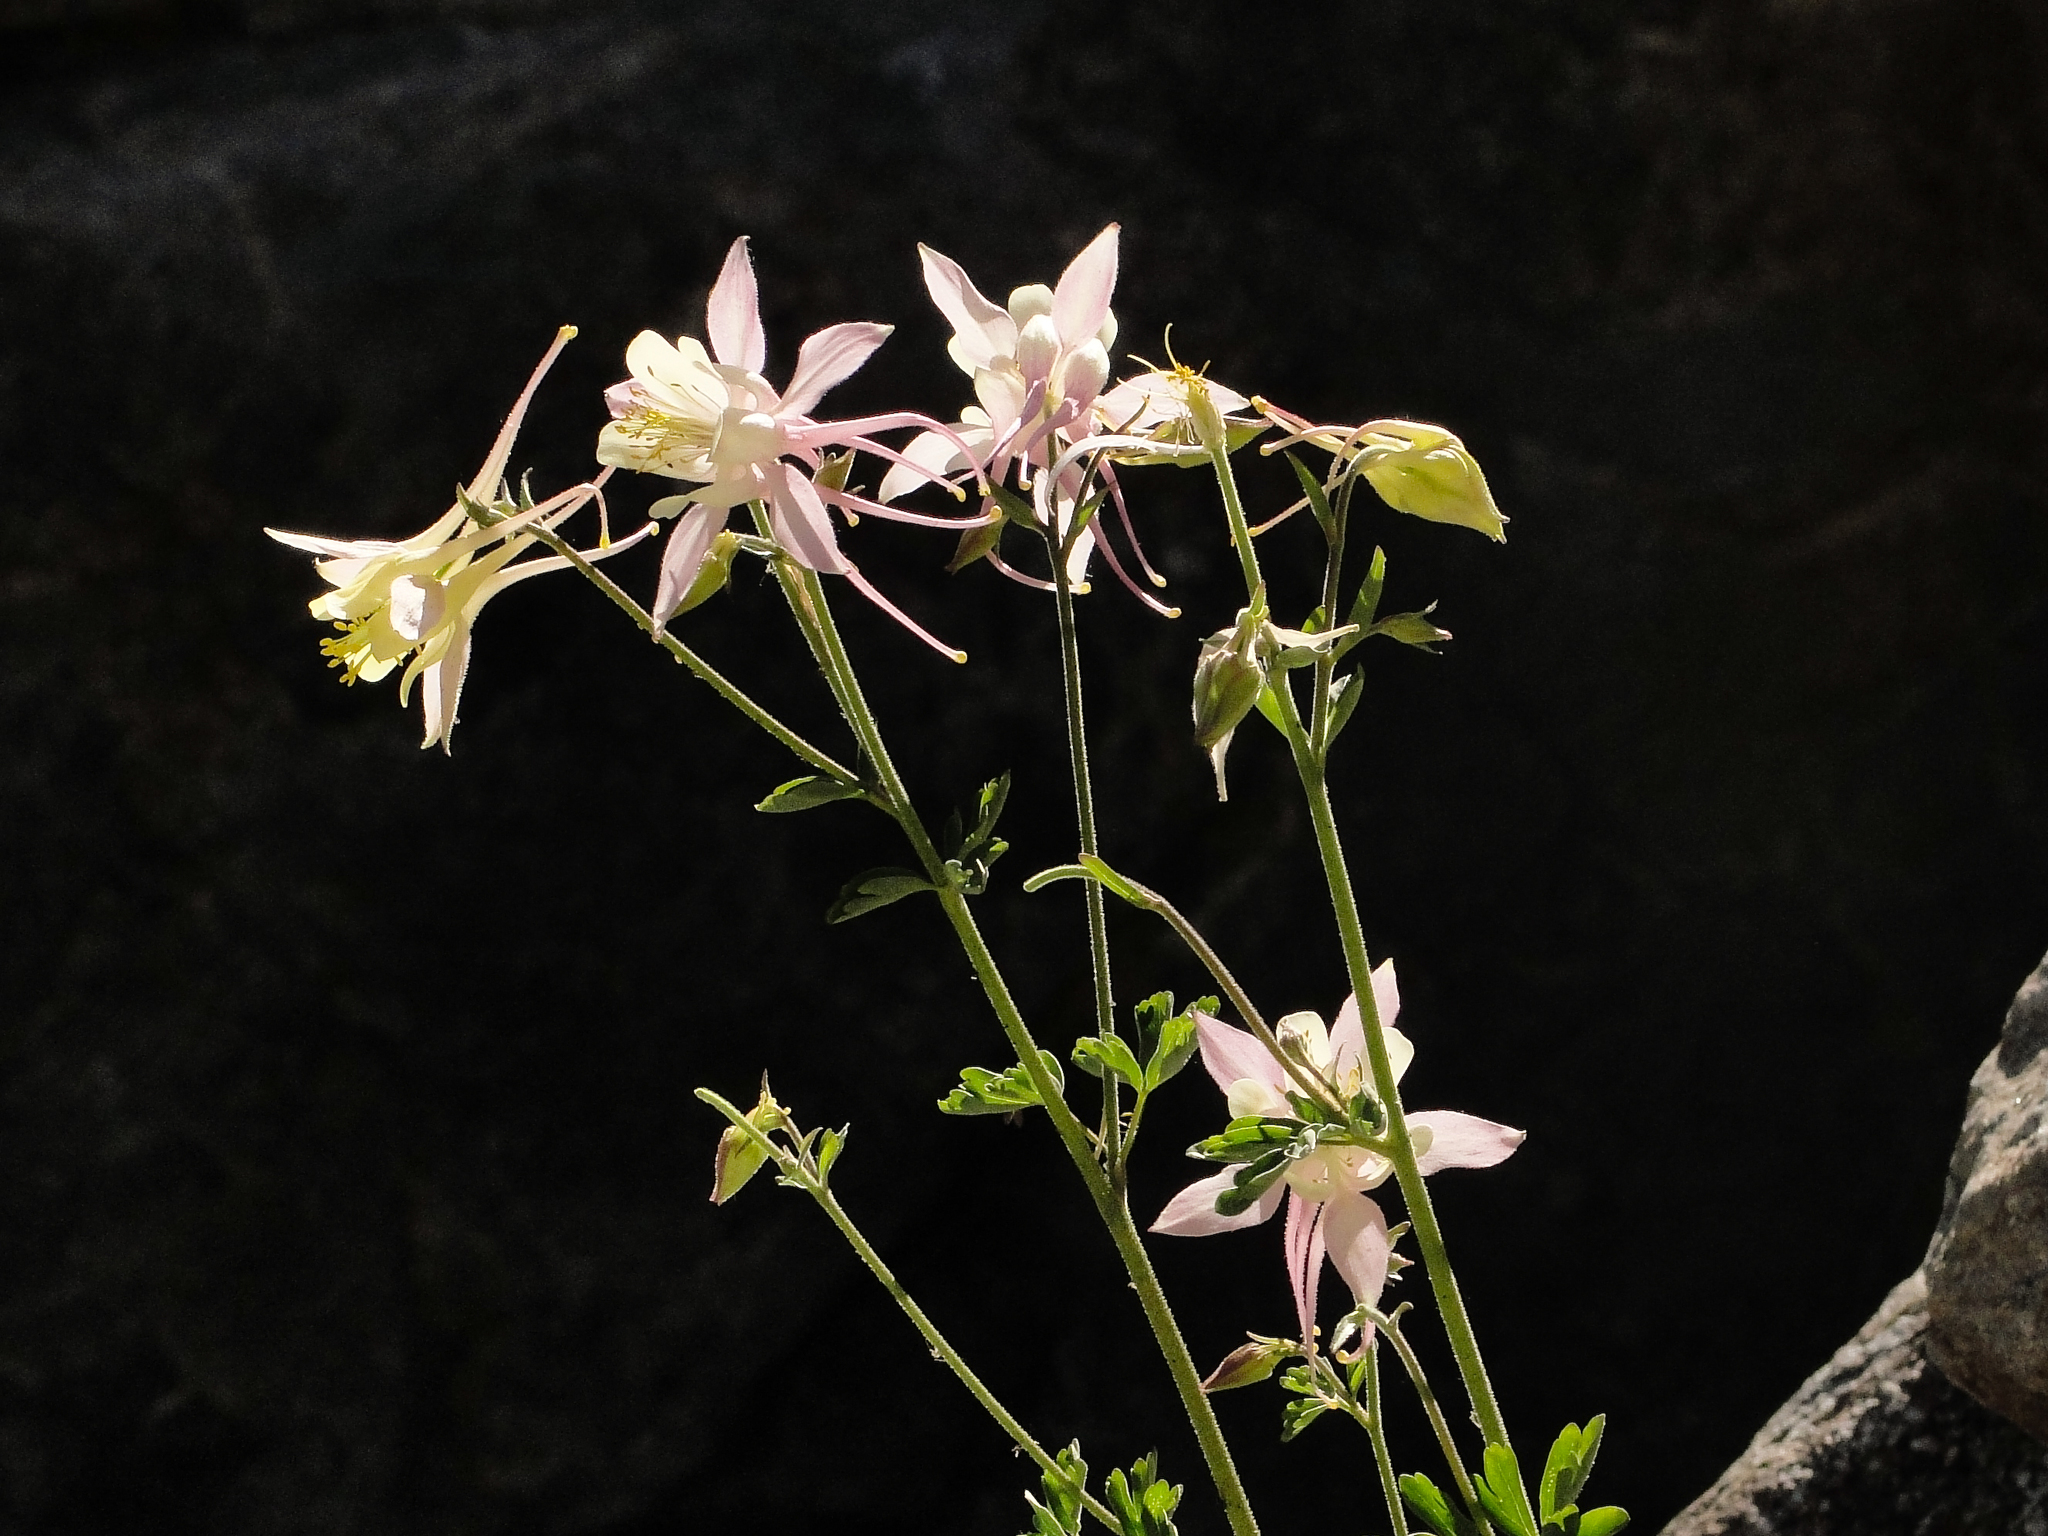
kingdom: Plantae
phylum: Tracheophyta
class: Magnoliopsida
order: Ranunculales
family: Ranunculaceae
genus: Aquilegia
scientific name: Aquilegia pubescens
